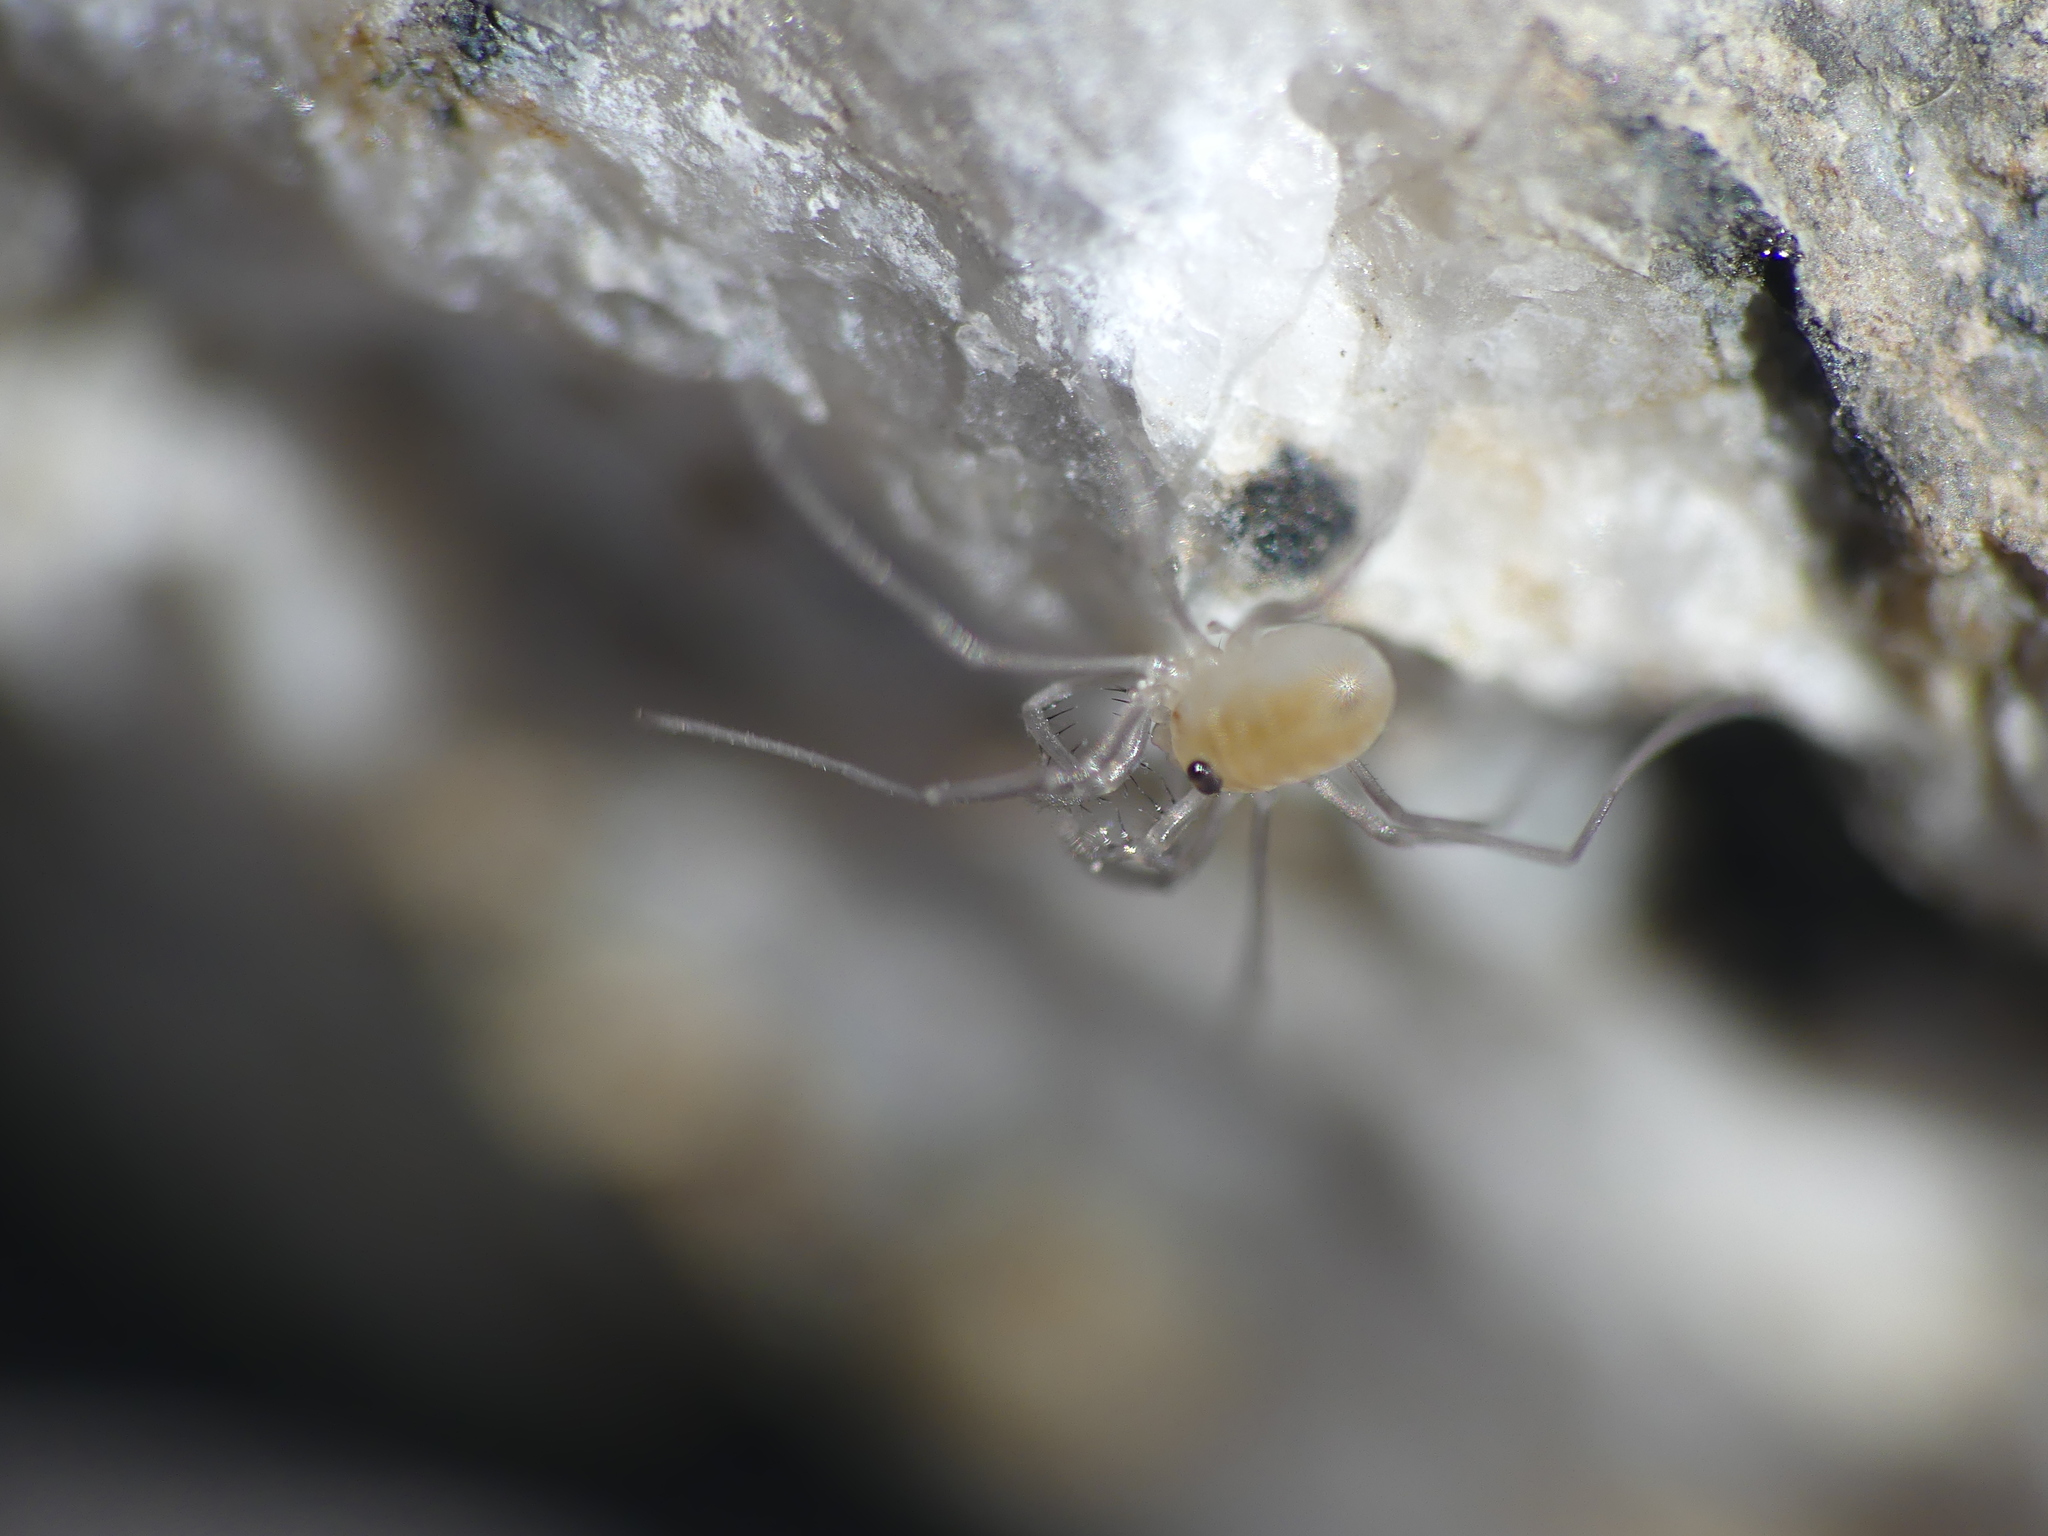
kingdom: Animalia
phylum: Arthropoda
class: Arachnida
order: Opiliones
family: Phalangiidae
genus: Dicranopalpus
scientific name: Dicranopalpus gasteinensis
